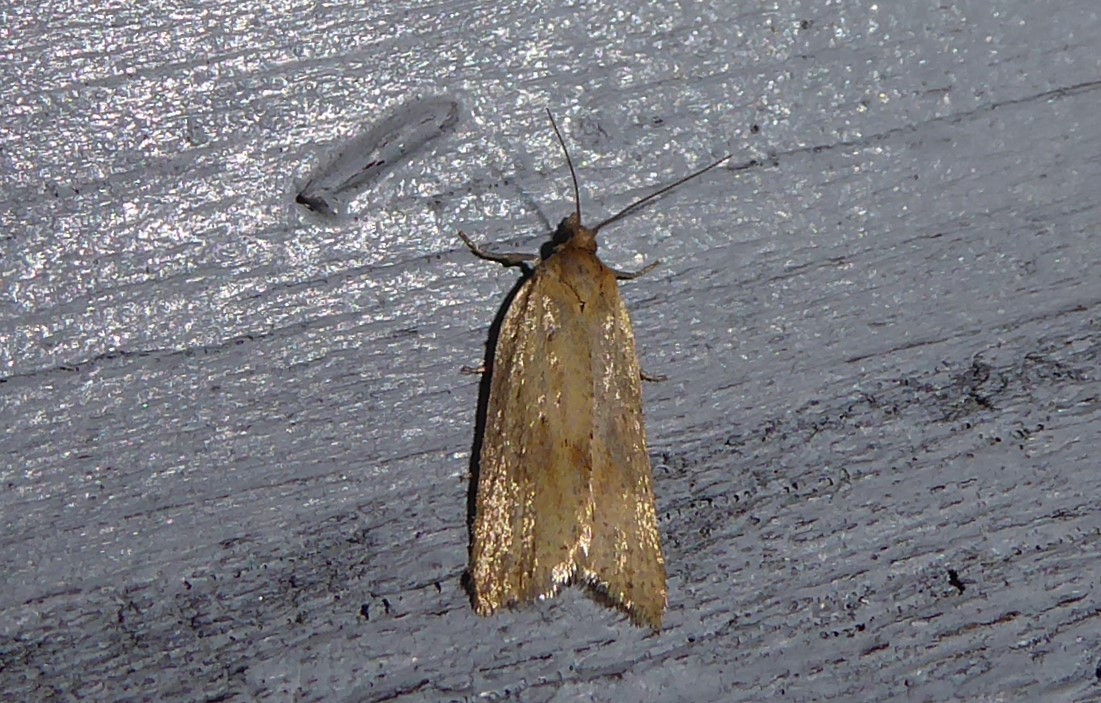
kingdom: Animalia
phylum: Arthropoda
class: Insecta
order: Lepidoptera
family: Tortricidae
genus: Clepsis
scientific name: Clepsis
